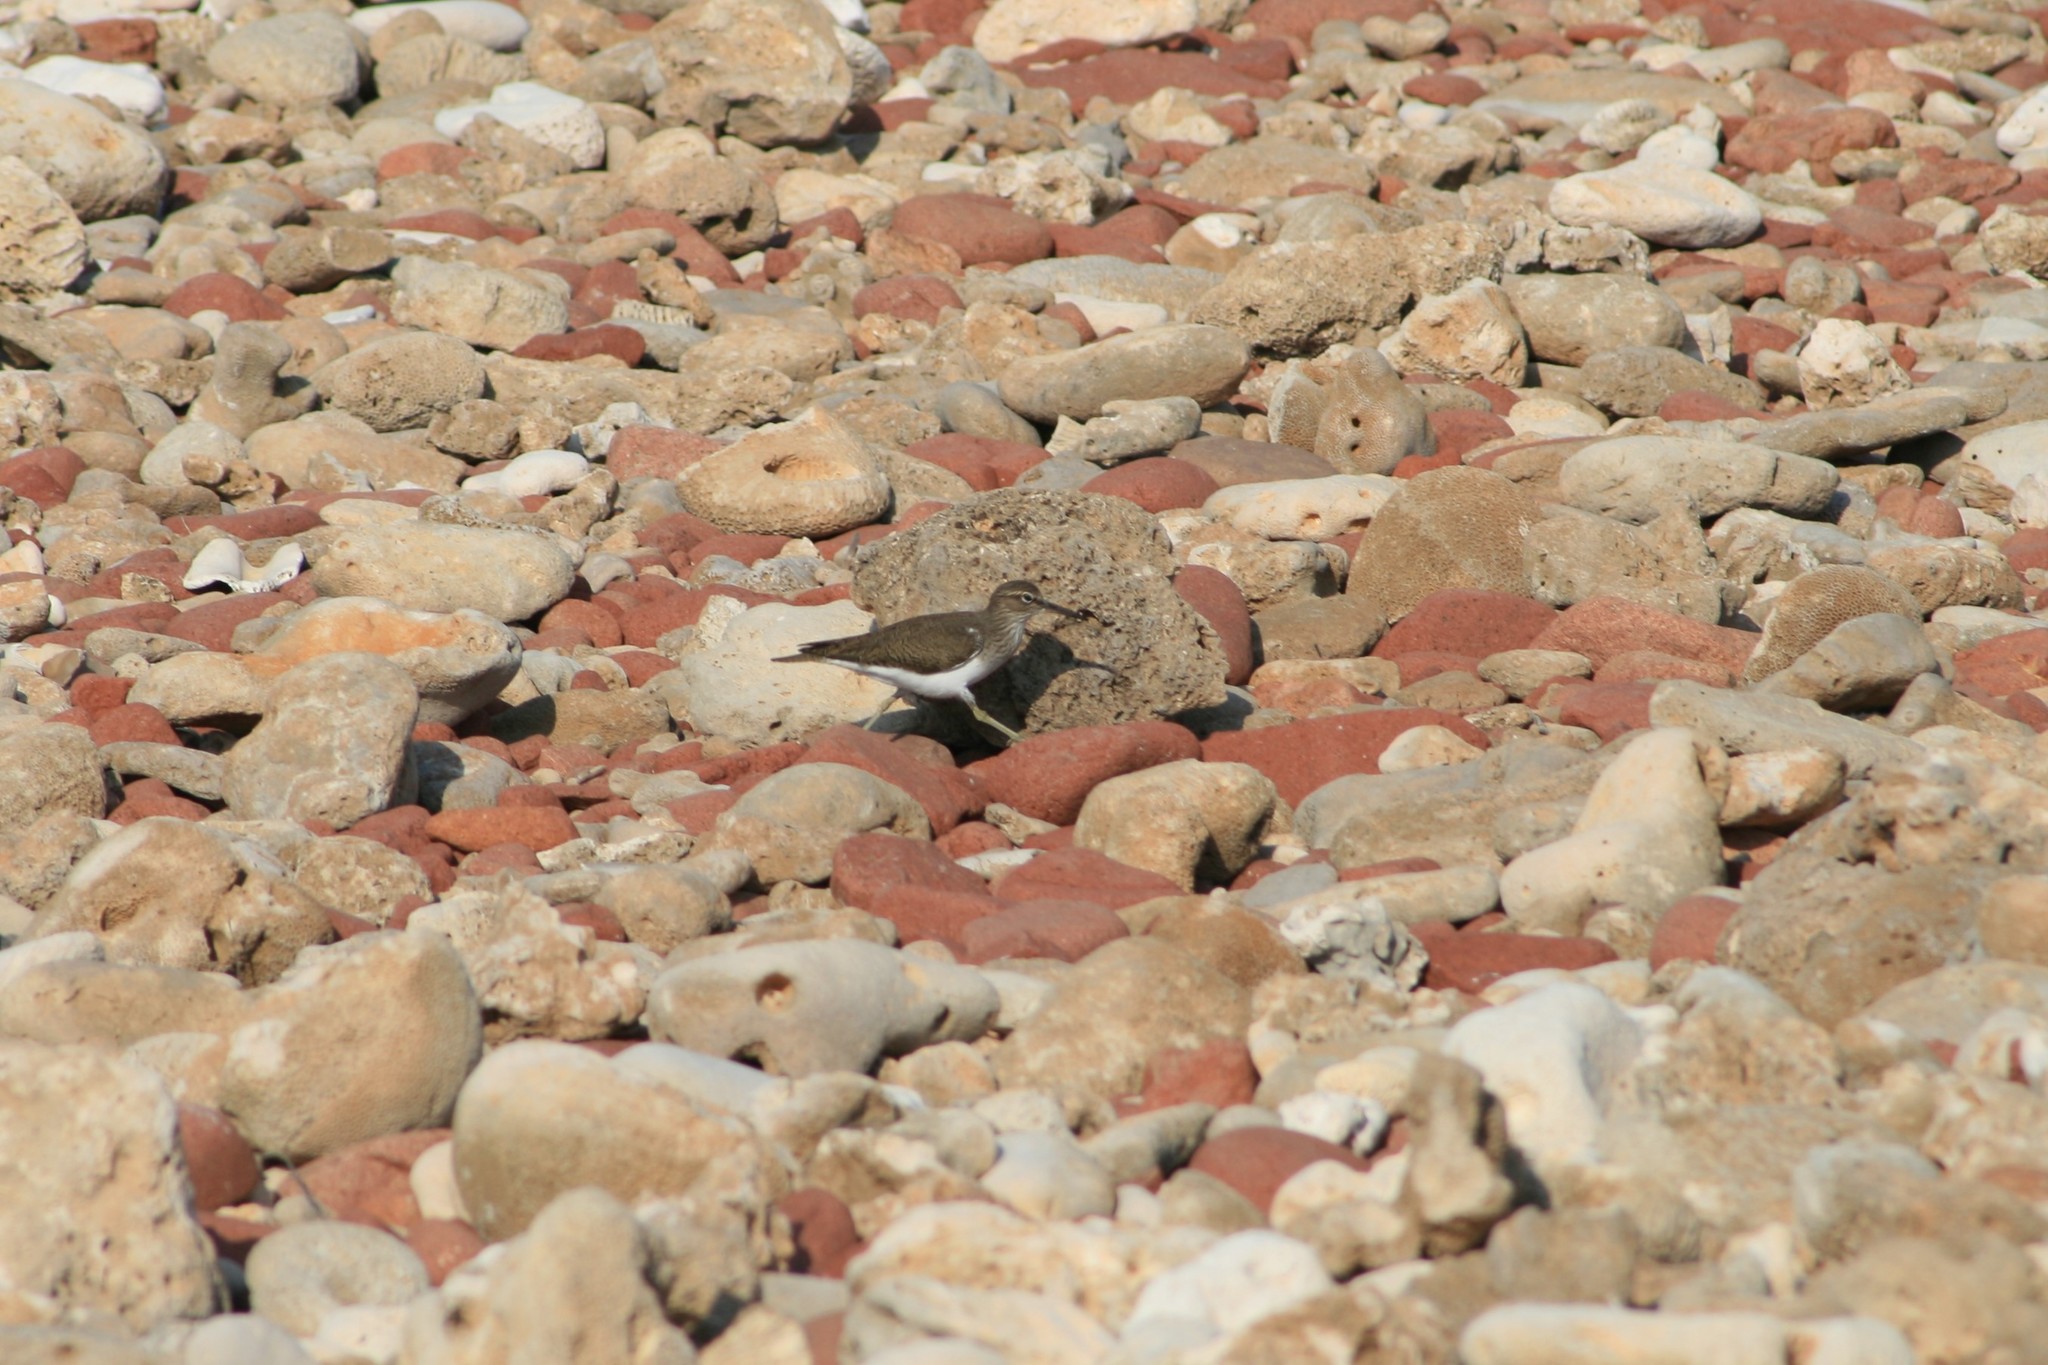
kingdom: Animalia
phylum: Chordata
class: Aves
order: Charadriiformes
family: Scolopacidae
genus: Actitis
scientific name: Actitis hypoleucos
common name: Common sandpiper
